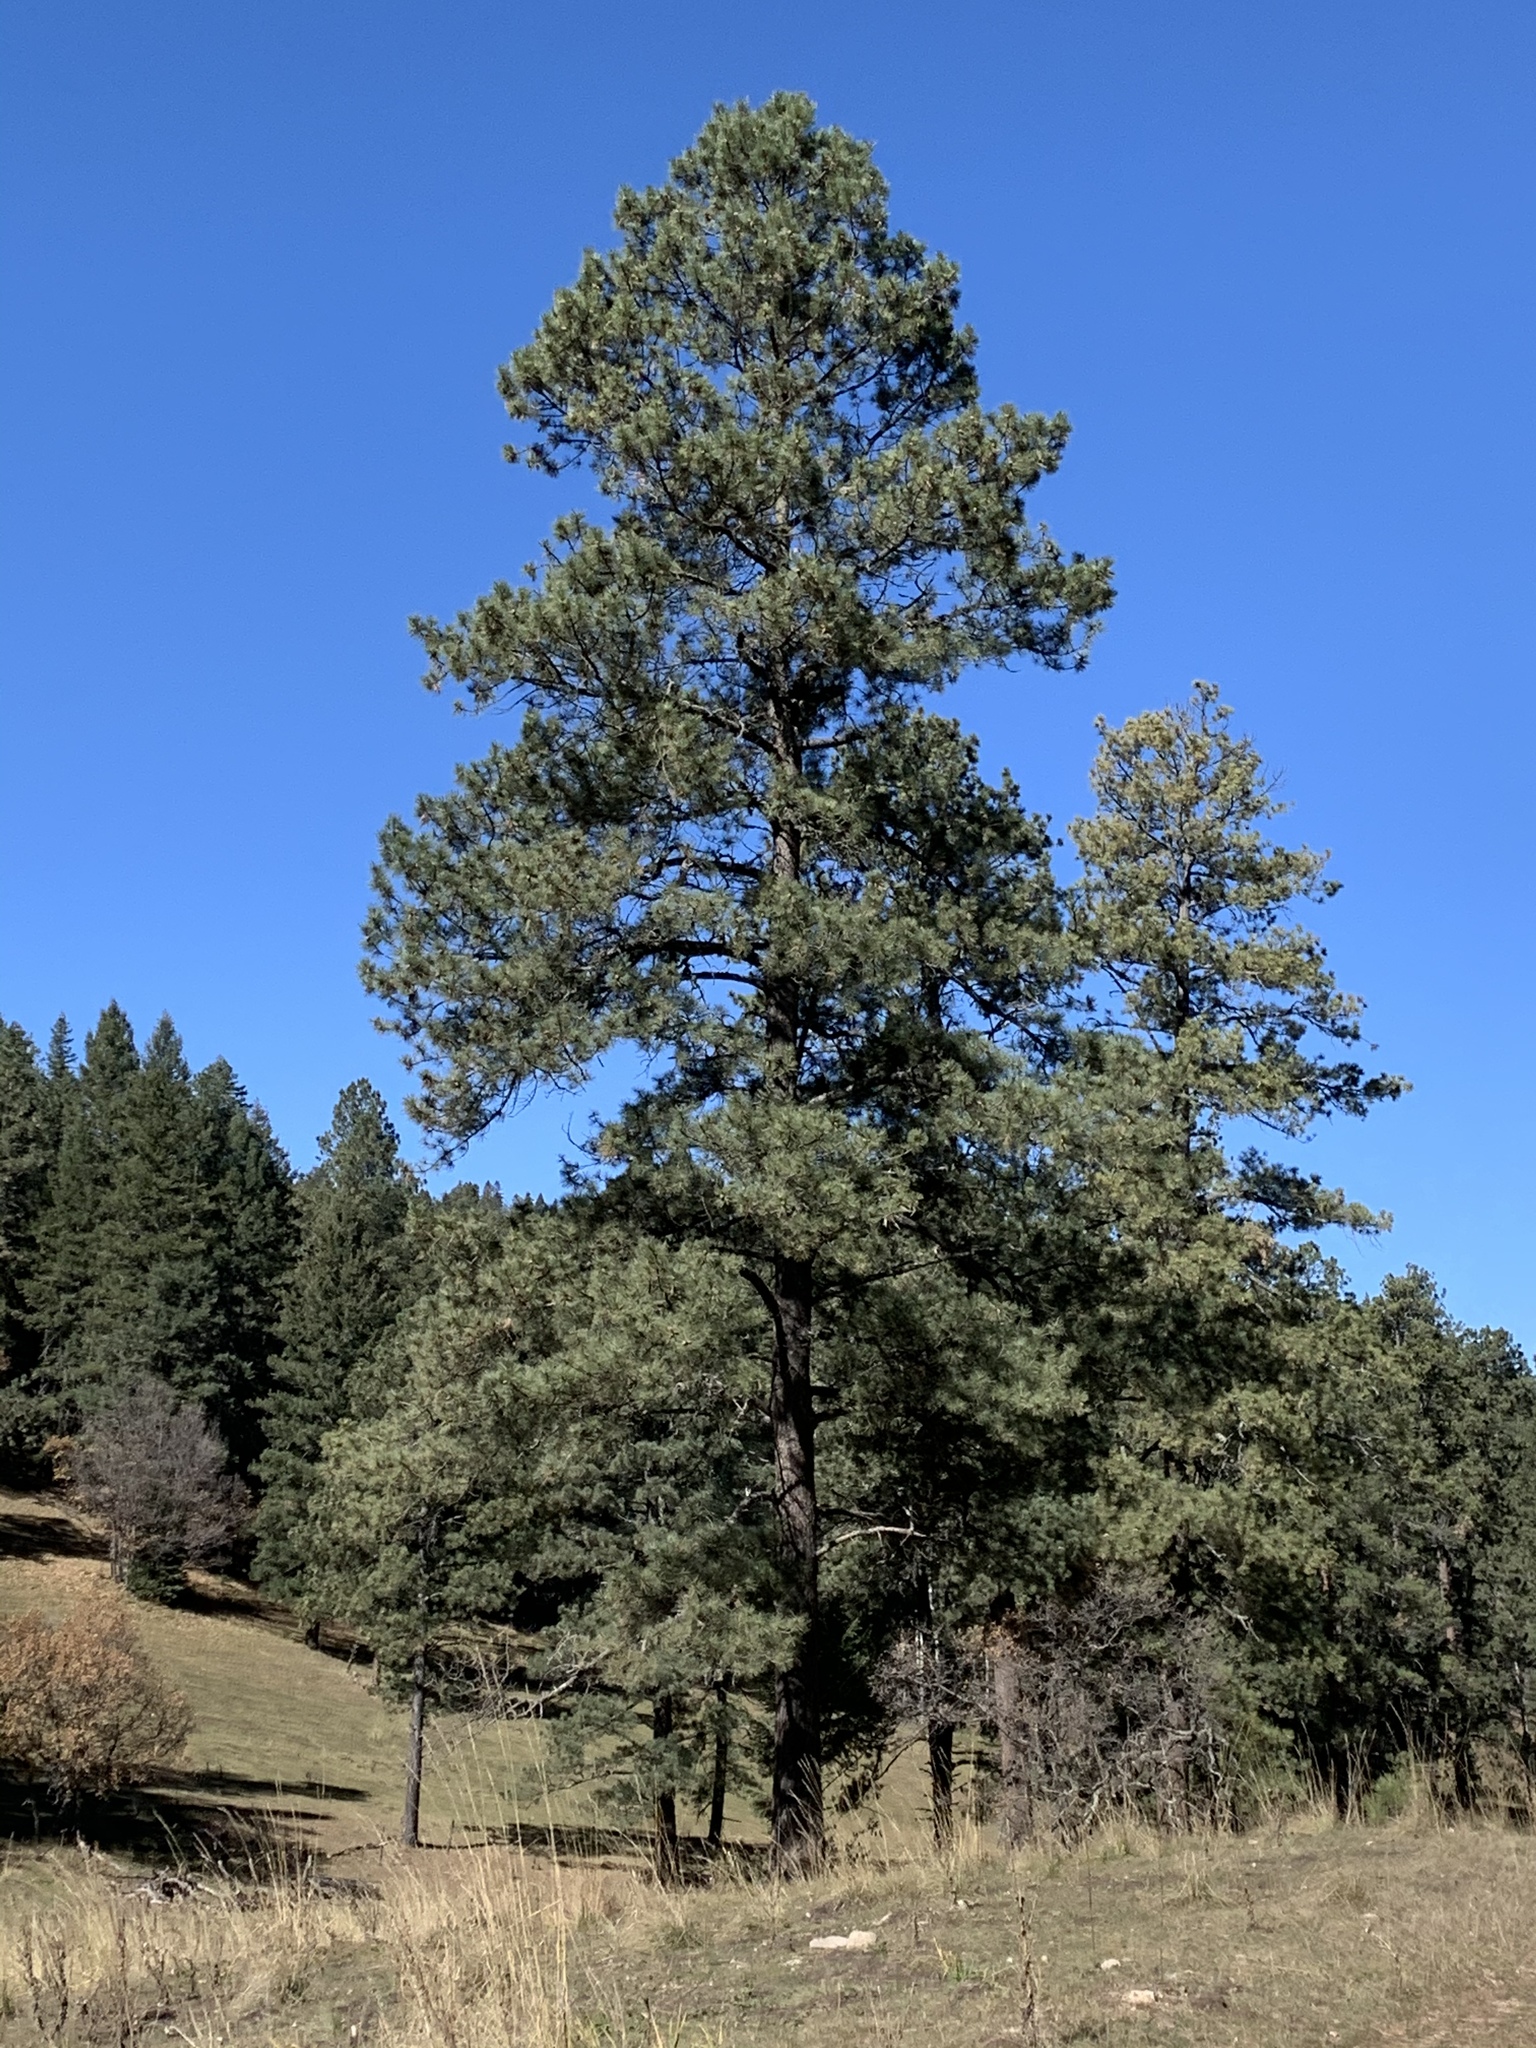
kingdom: Plantae
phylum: Tracheophyta
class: Pinopsida
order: Pinales
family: Pinaceae
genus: Pinus
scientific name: Pinus ponderosa
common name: Western yellow-pine
